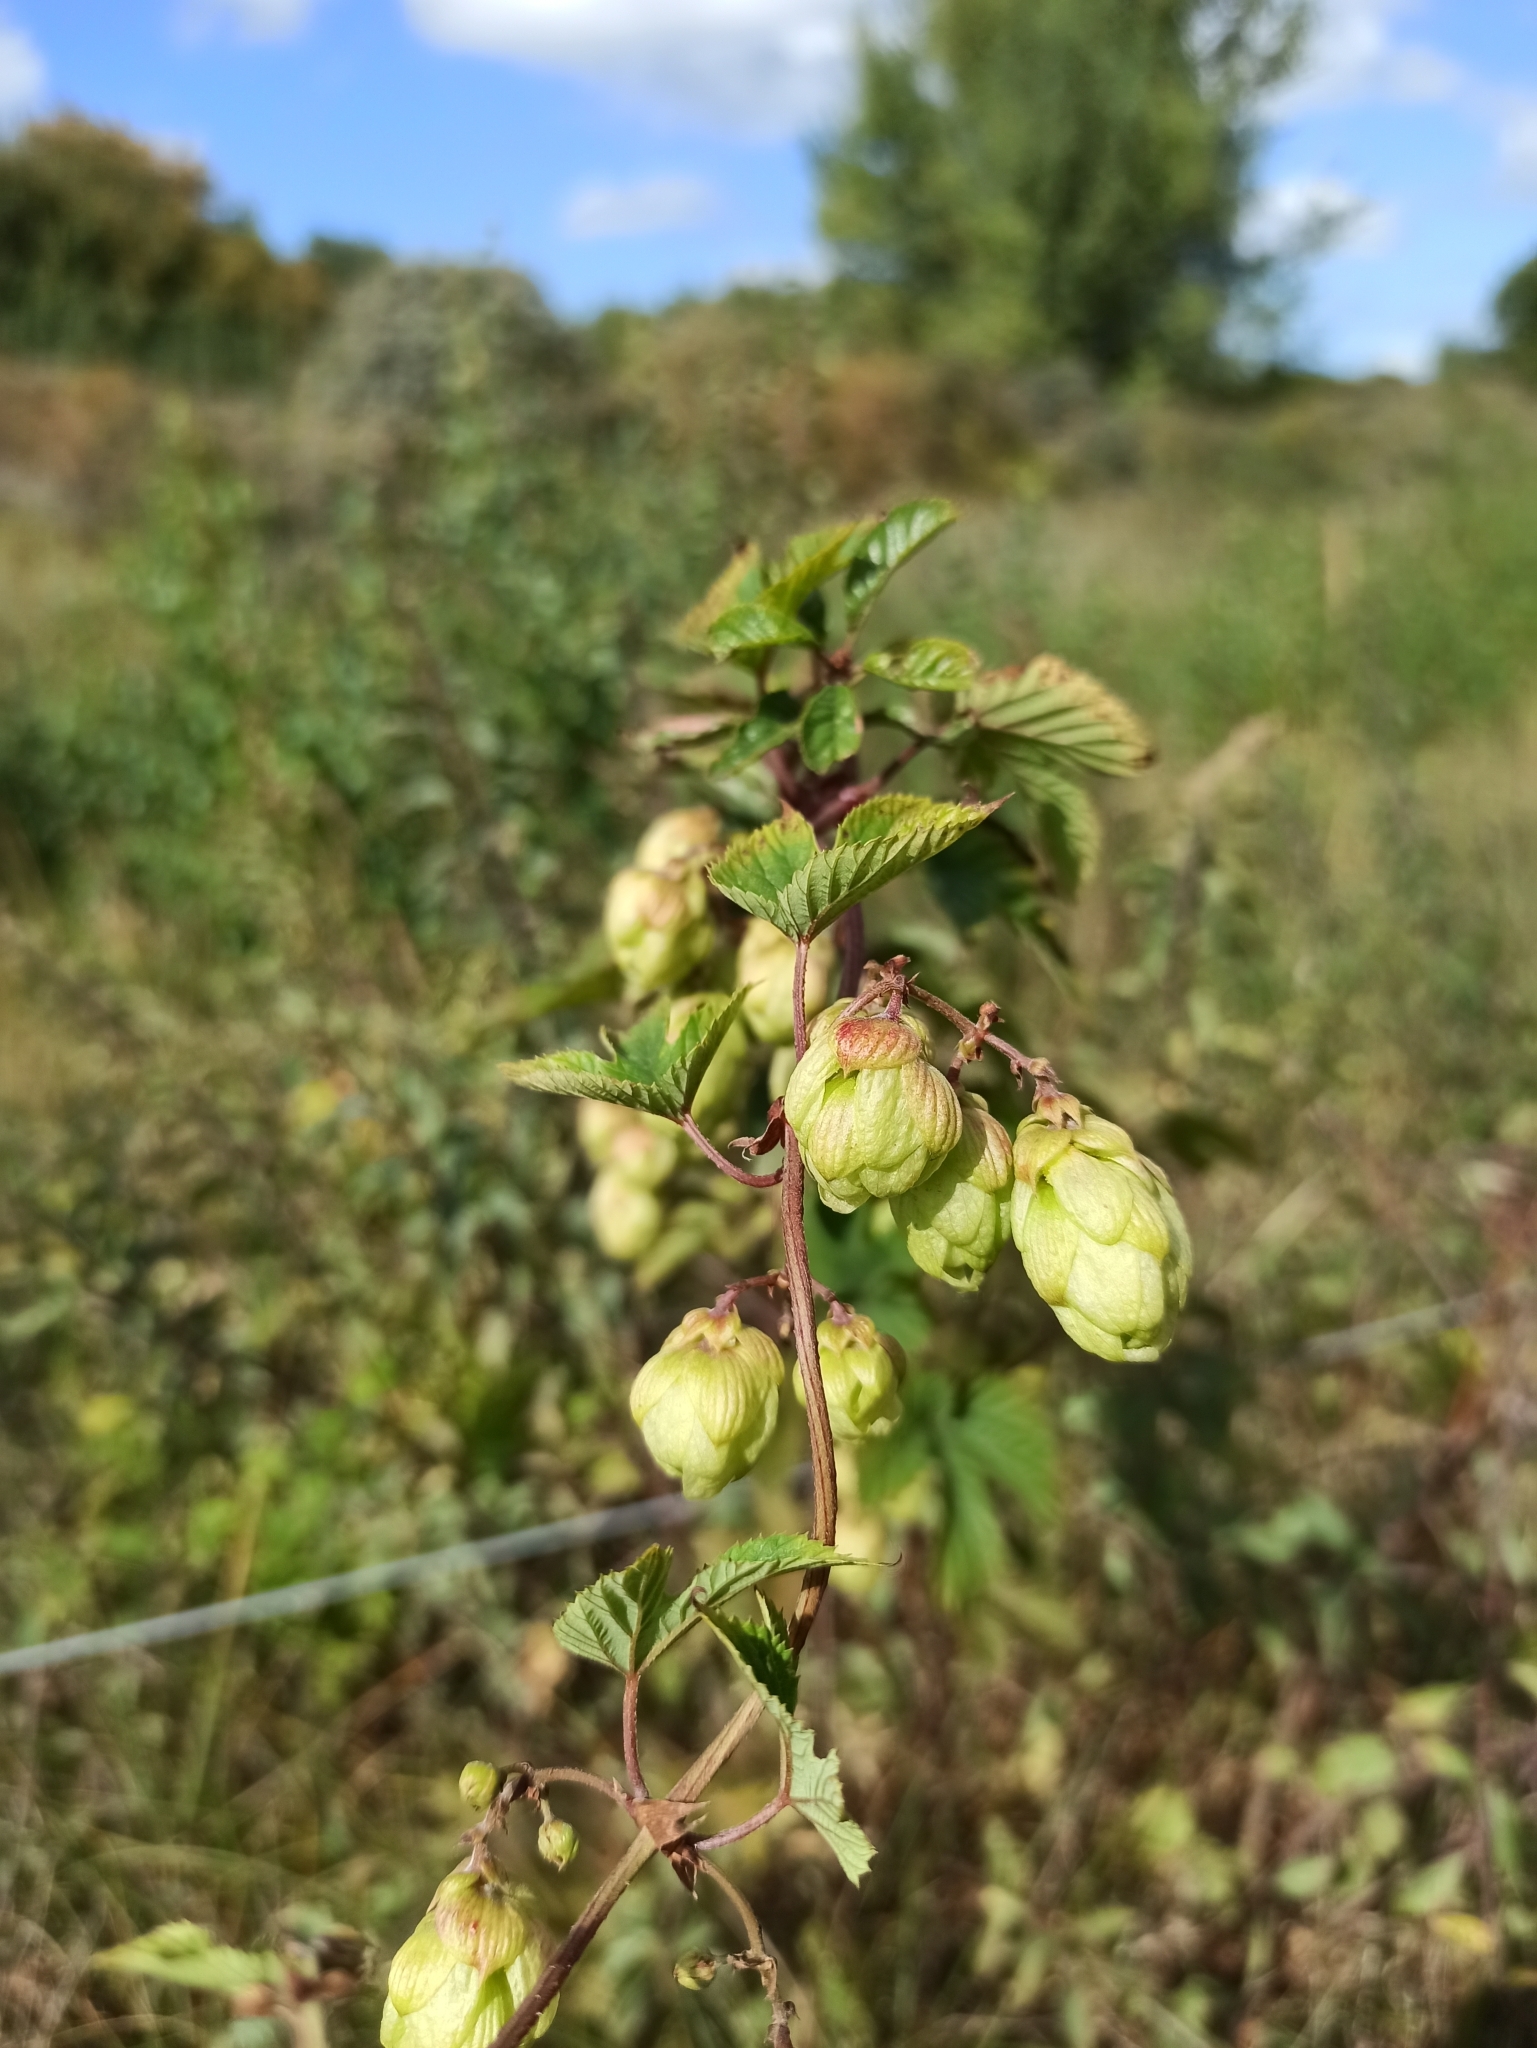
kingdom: Plantae
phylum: Tracheophyta
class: Magnoliopsida
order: Rosales
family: Cannabaceae
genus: Humulus
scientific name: Humulus lupulus
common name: Hop
